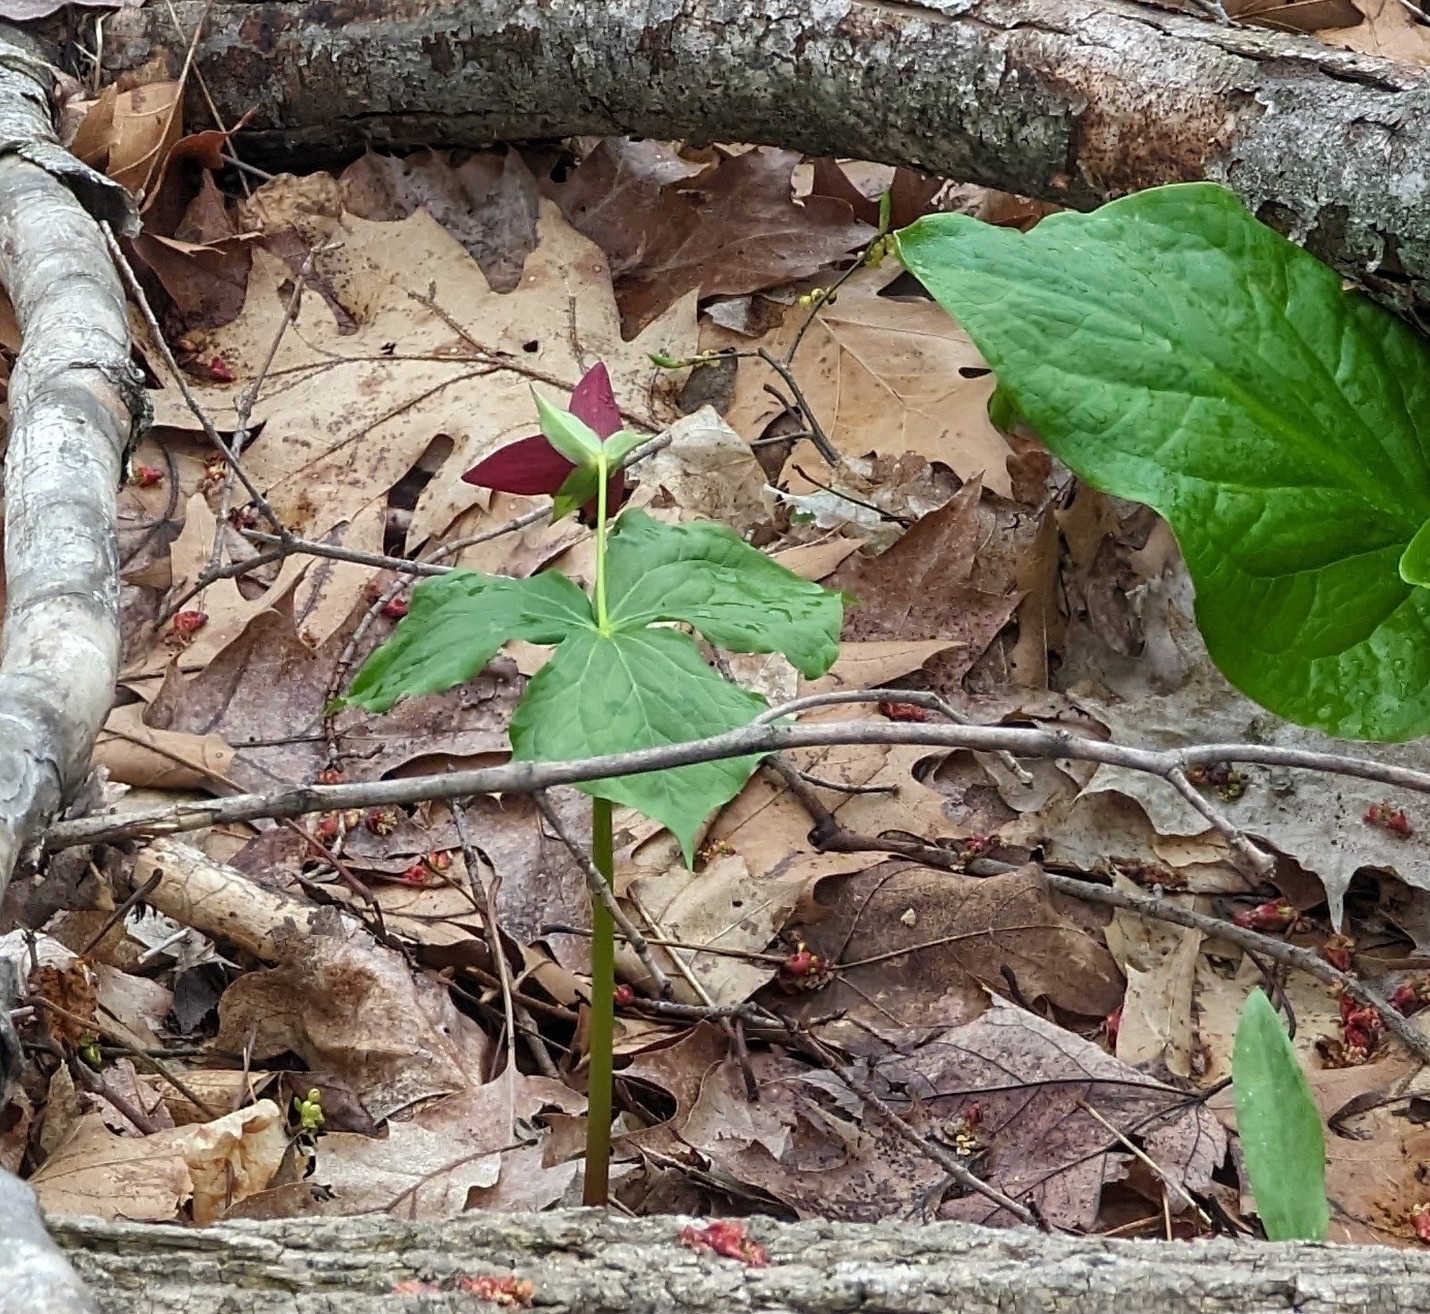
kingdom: Plantae
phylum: Tracheophyta
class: Liliopsida
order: Liliales
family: Melanthiaceae
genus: Trillium
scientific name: Trillium erectum
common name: Purple trillium
